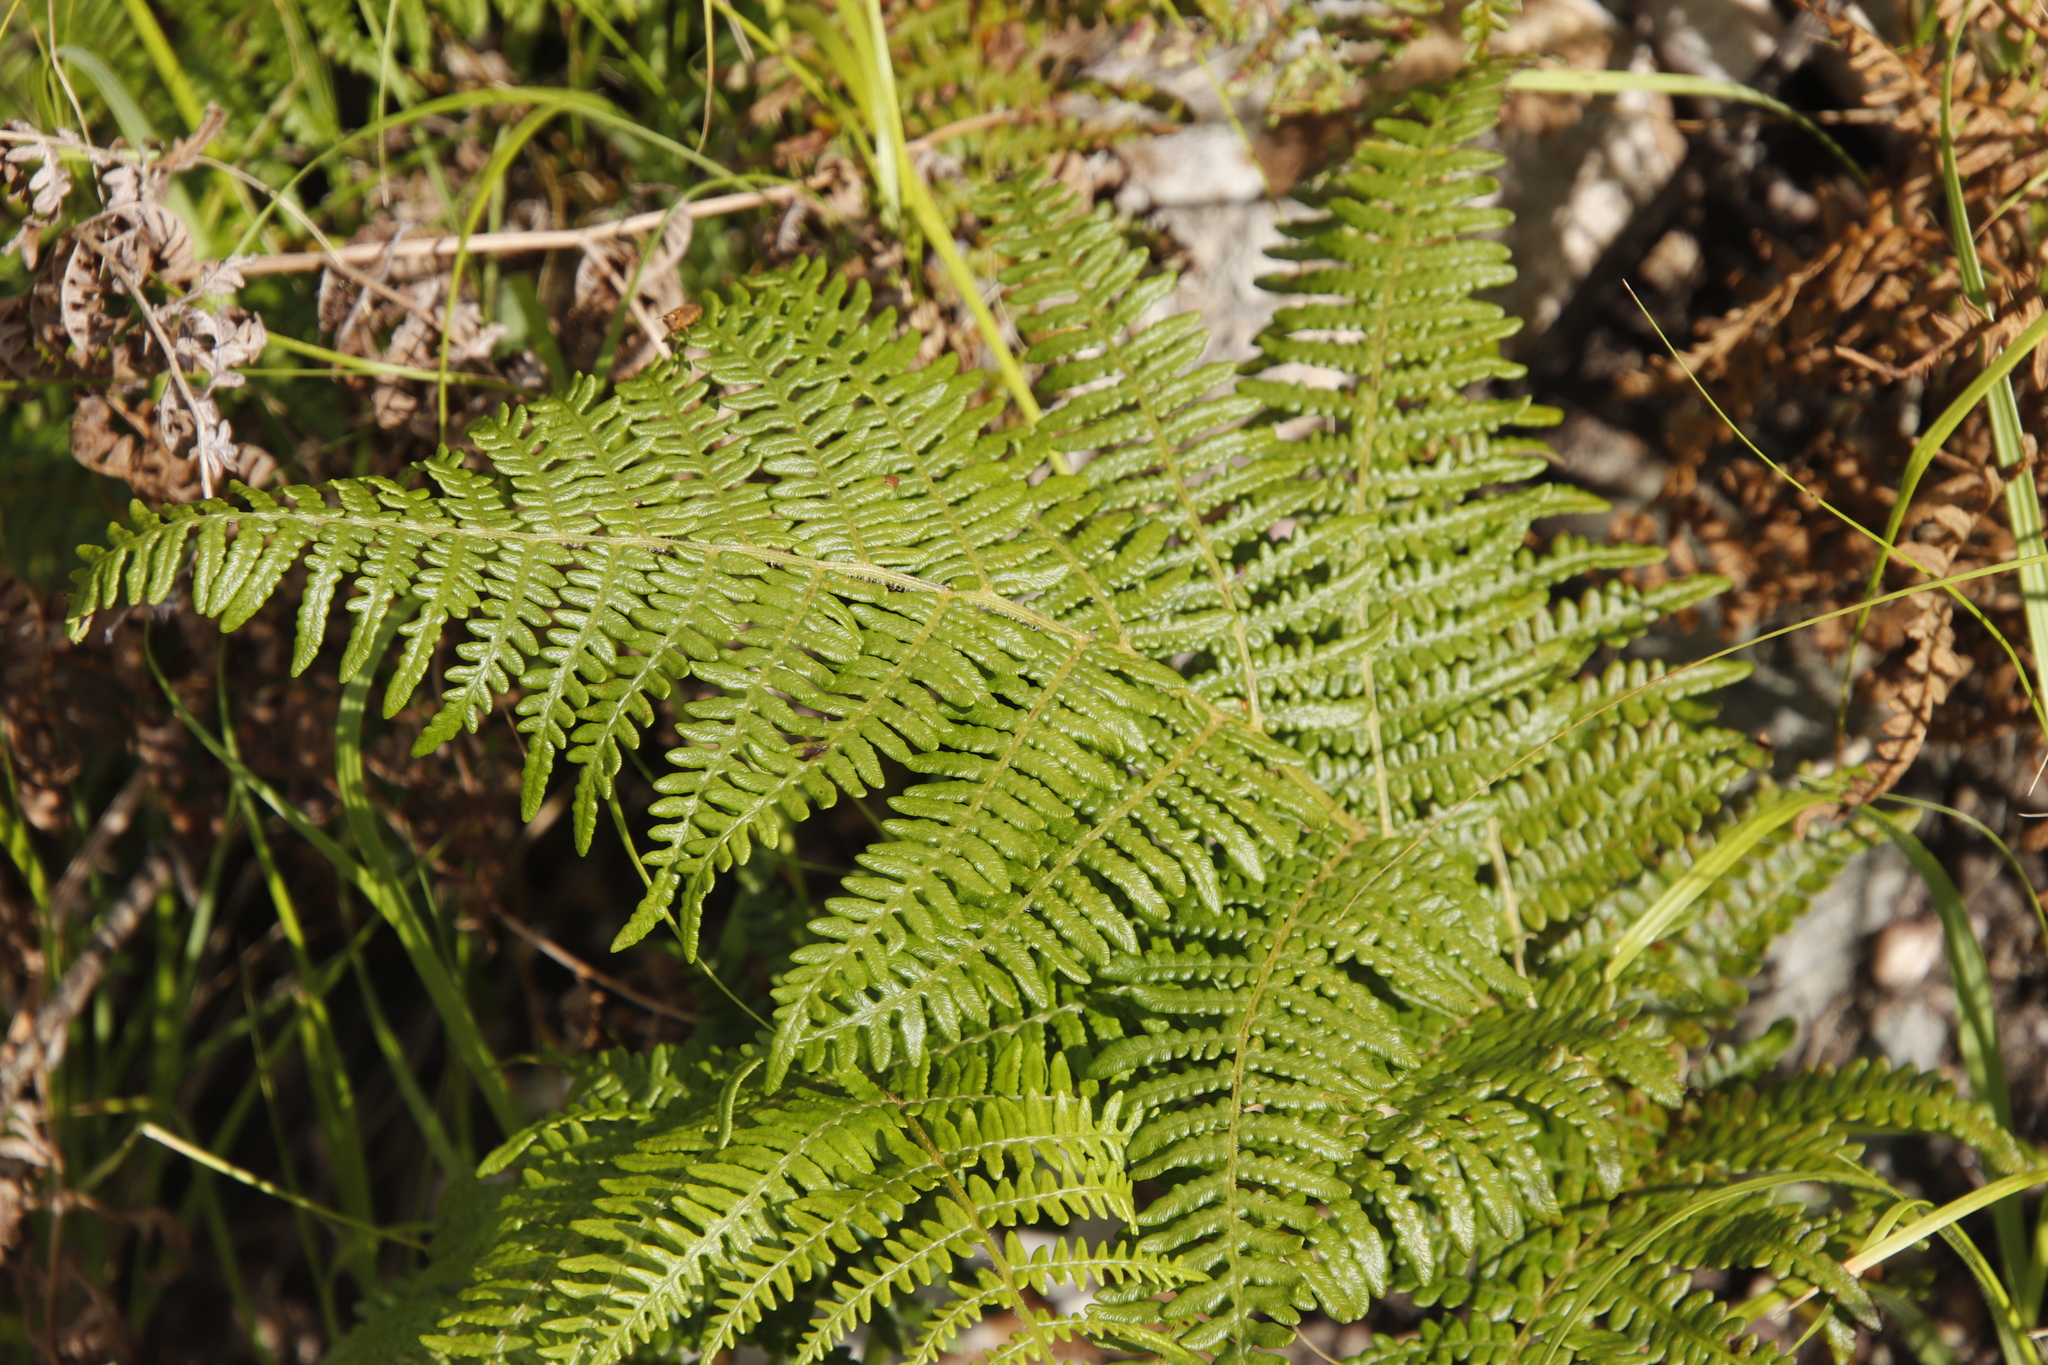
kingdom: Plantae
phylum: Tracheophyta
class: Polypodiopsida
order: Polypodiales
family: Dennstaedtiaceae
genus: Pteridium
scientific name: Pteridium aquilinum
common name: Bracken
